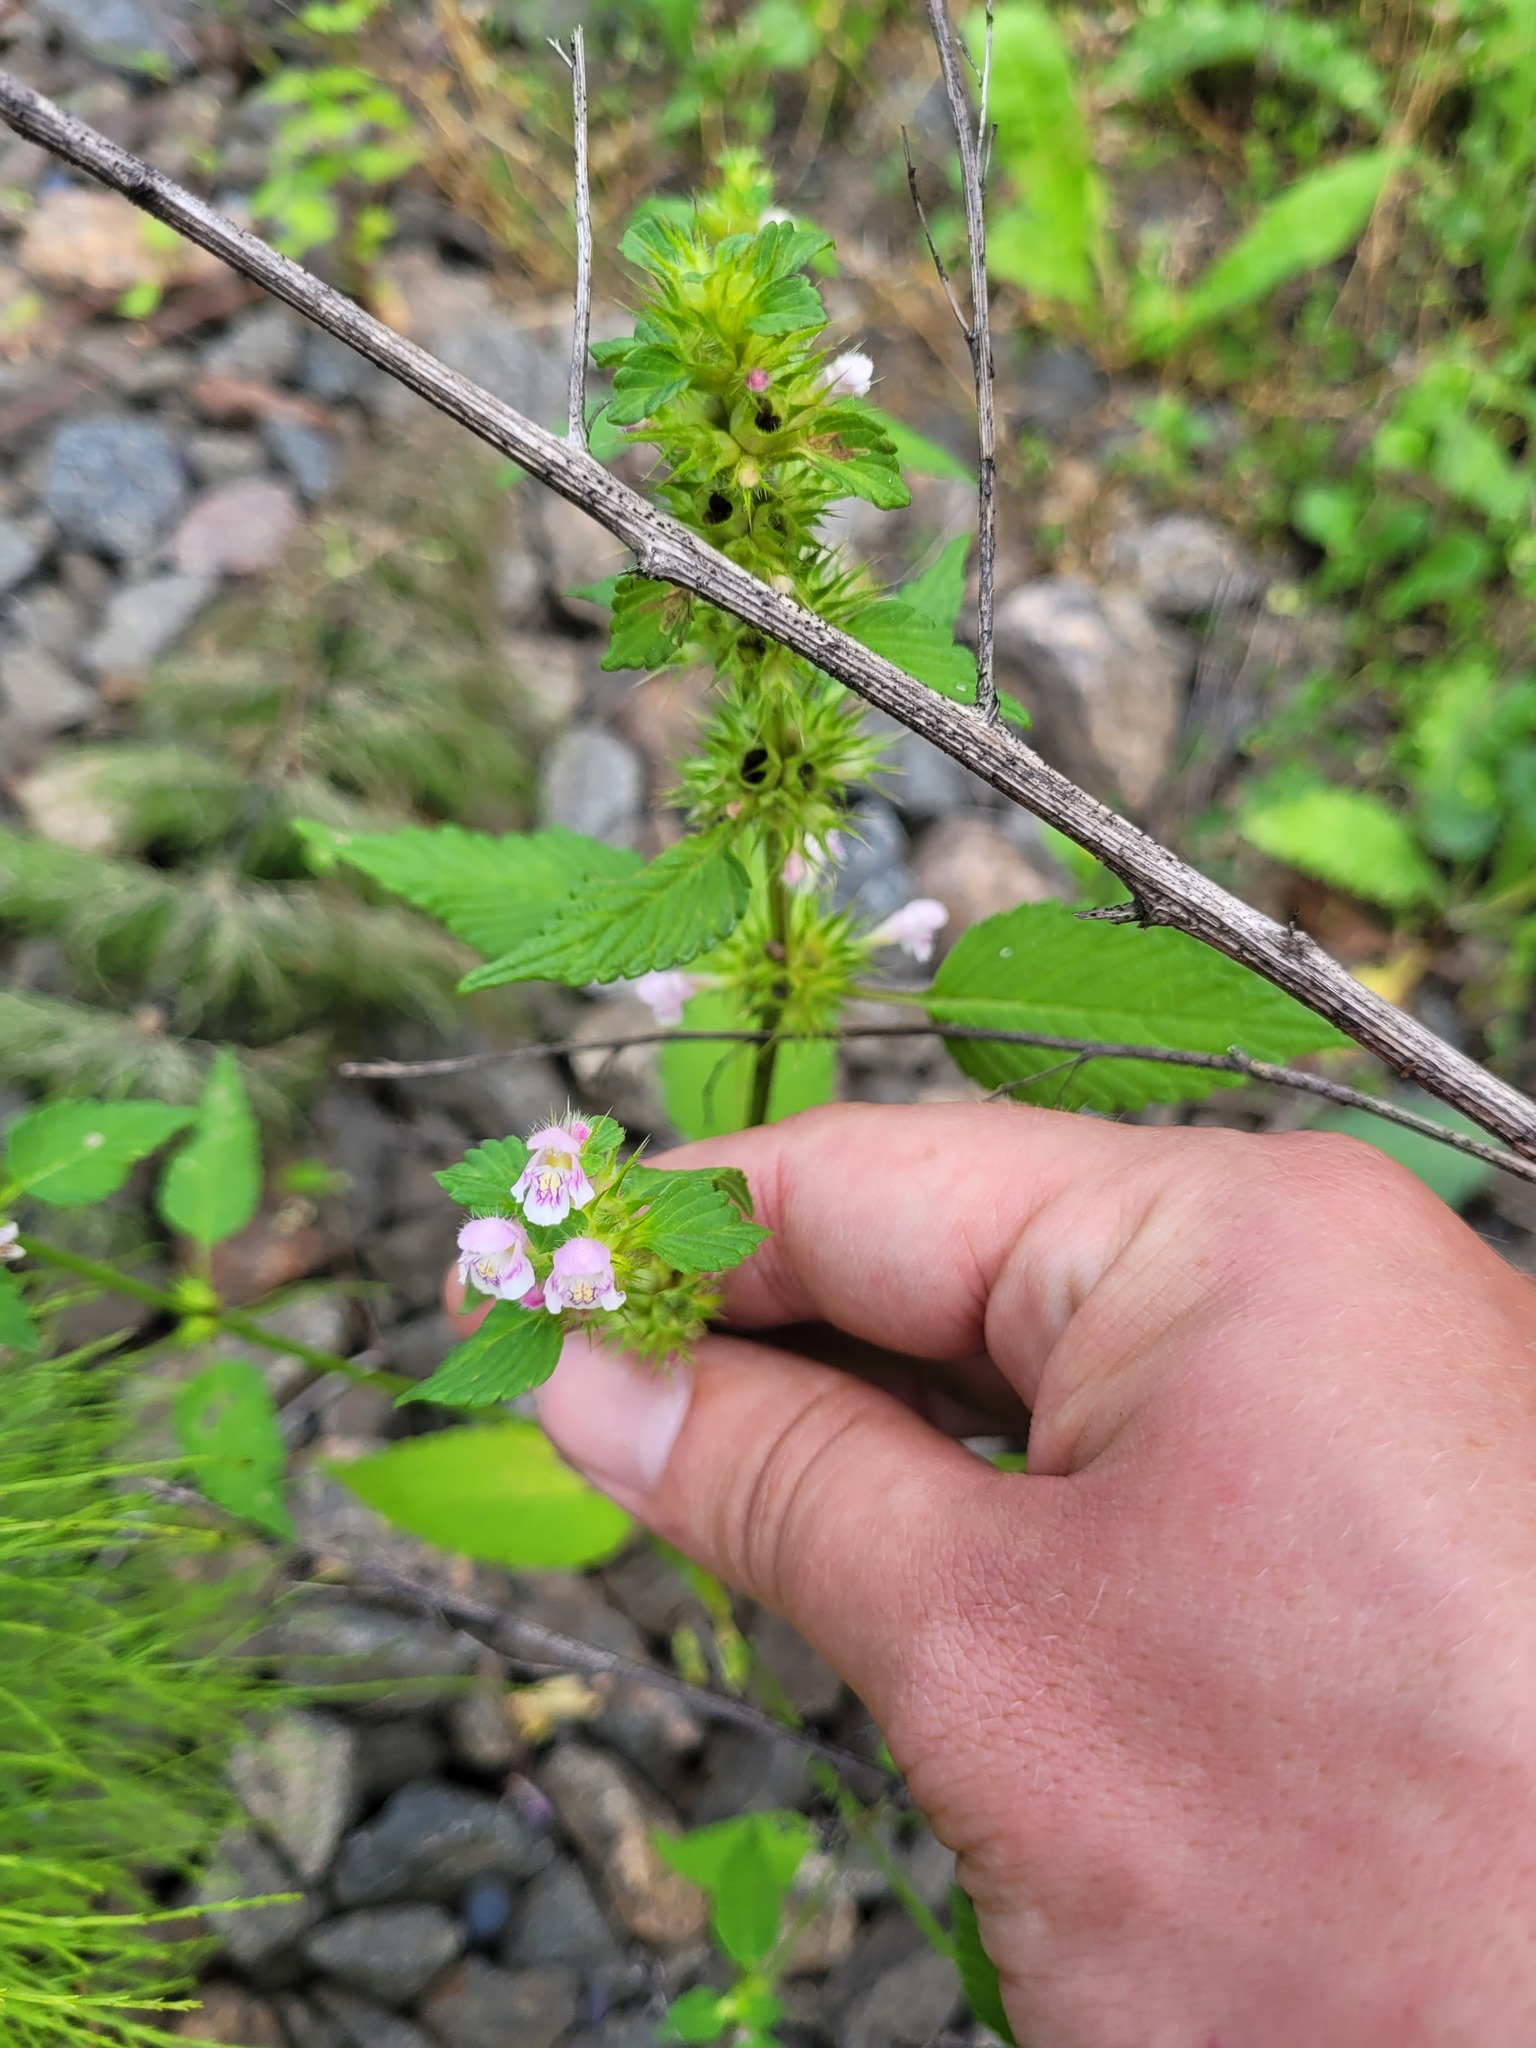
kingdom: Plantae
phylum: Tracheophyta
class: Magnoliopsida
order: Lamiales
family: Lamiaceae
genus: Galeopsis
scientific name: Galeopsis tetrahit
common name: Common hemp-nettle
